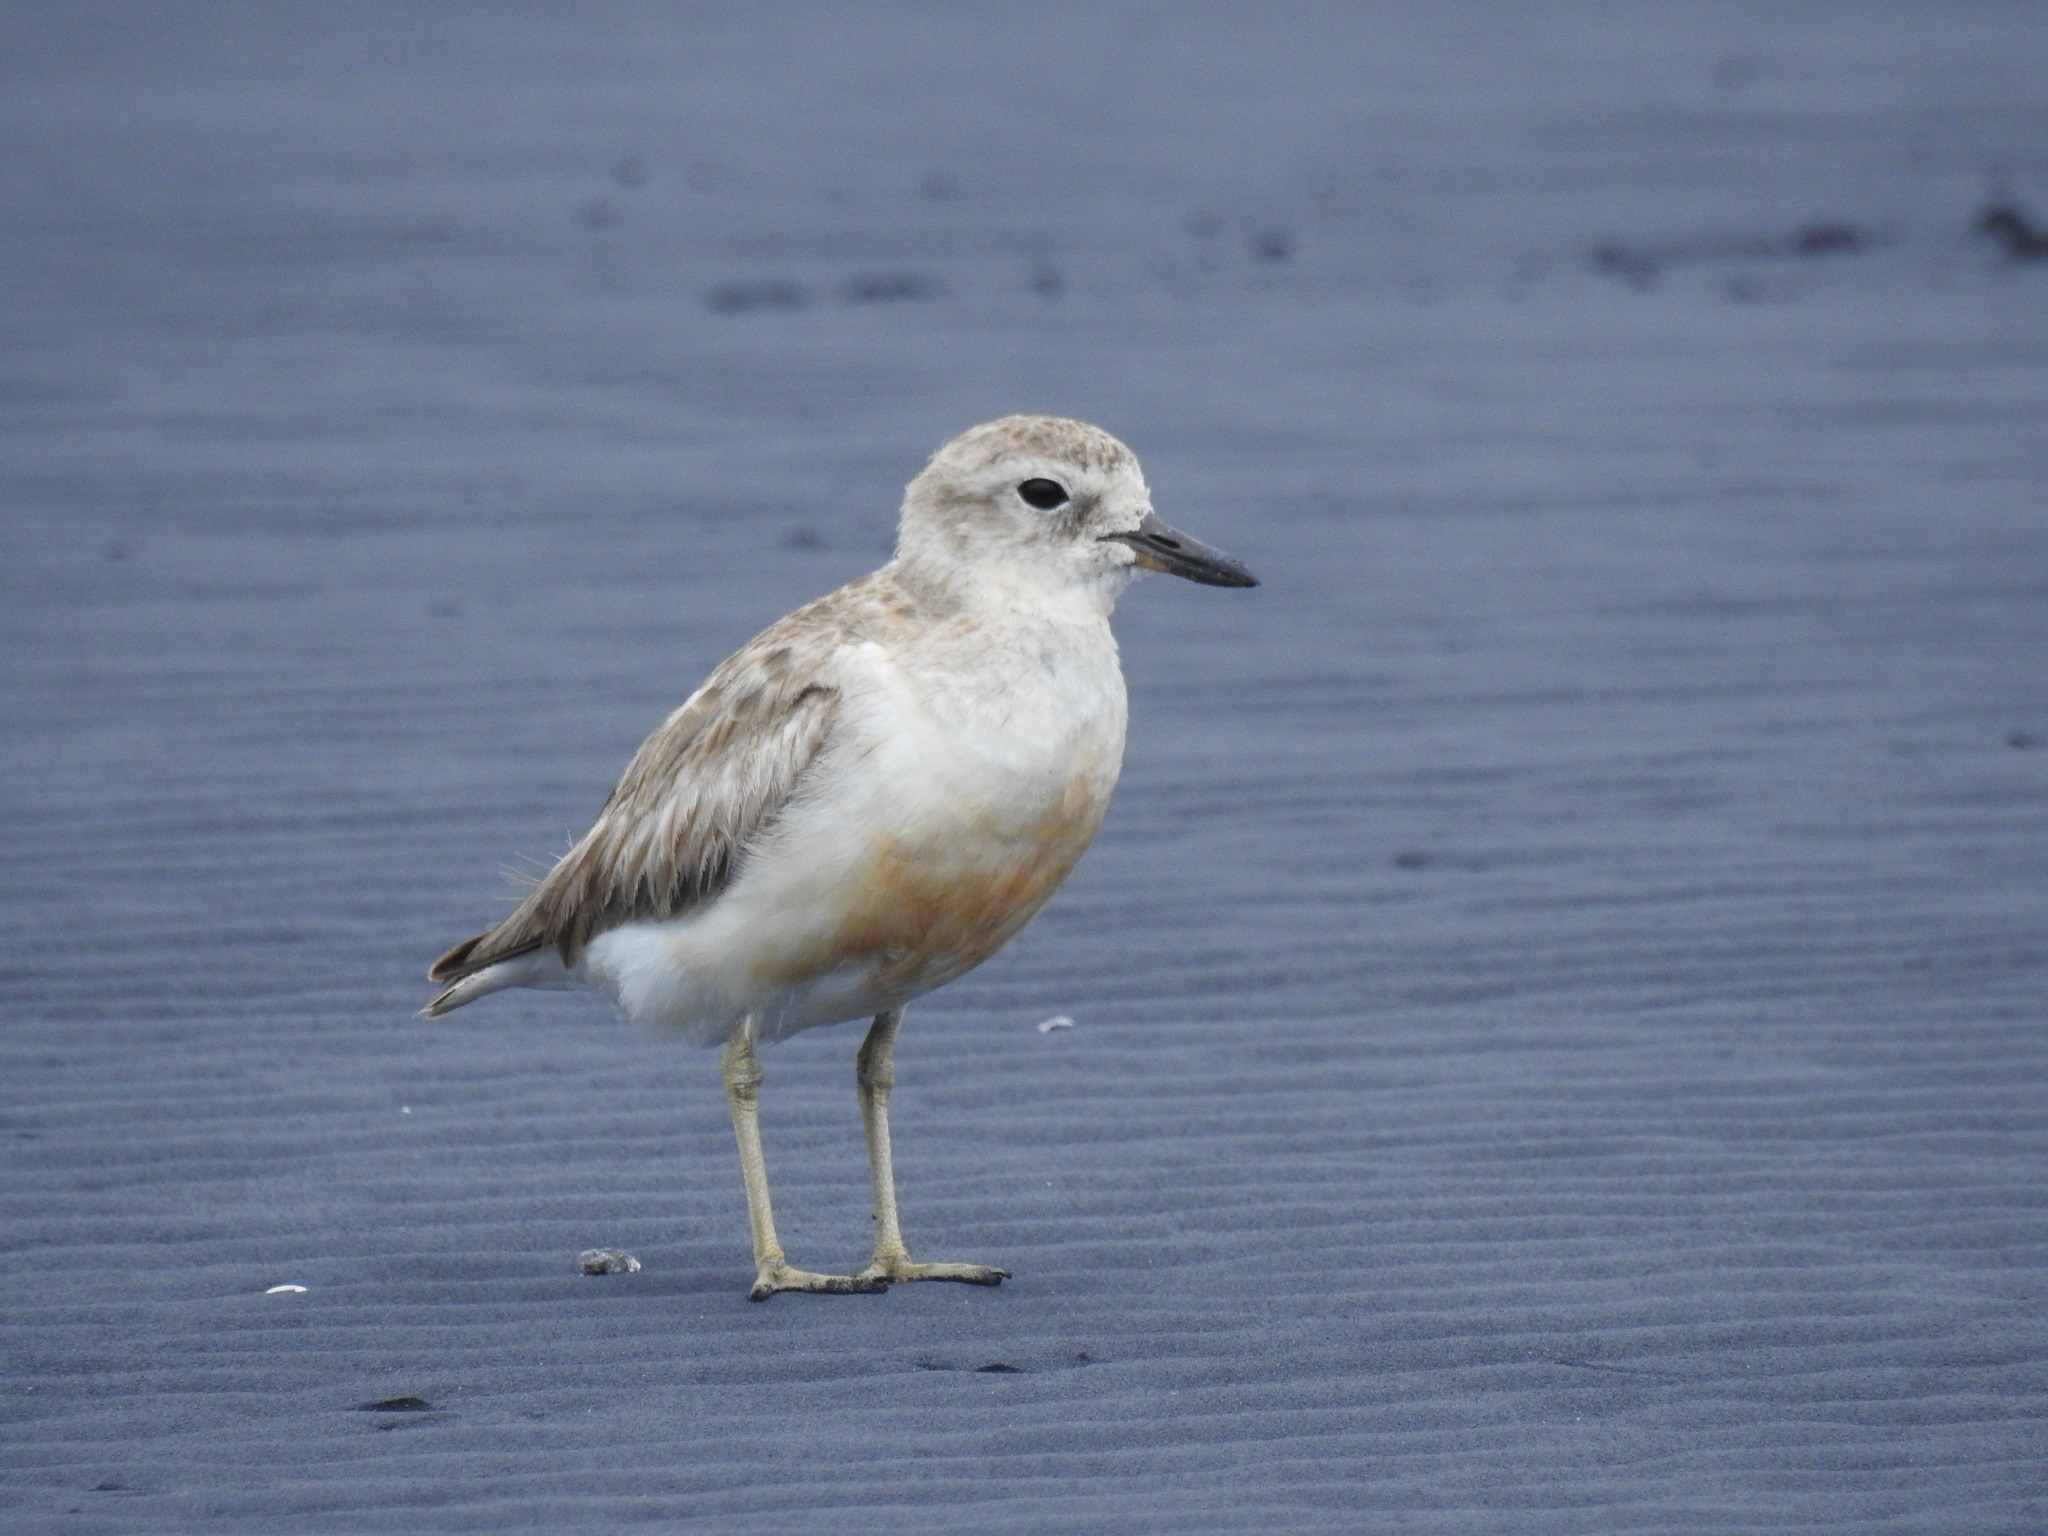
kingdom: Animalia
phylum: Chordata
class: Aves
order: Charadriiformes
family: Charadriidae
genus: Anarhynchus
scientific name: Anarhynchus
